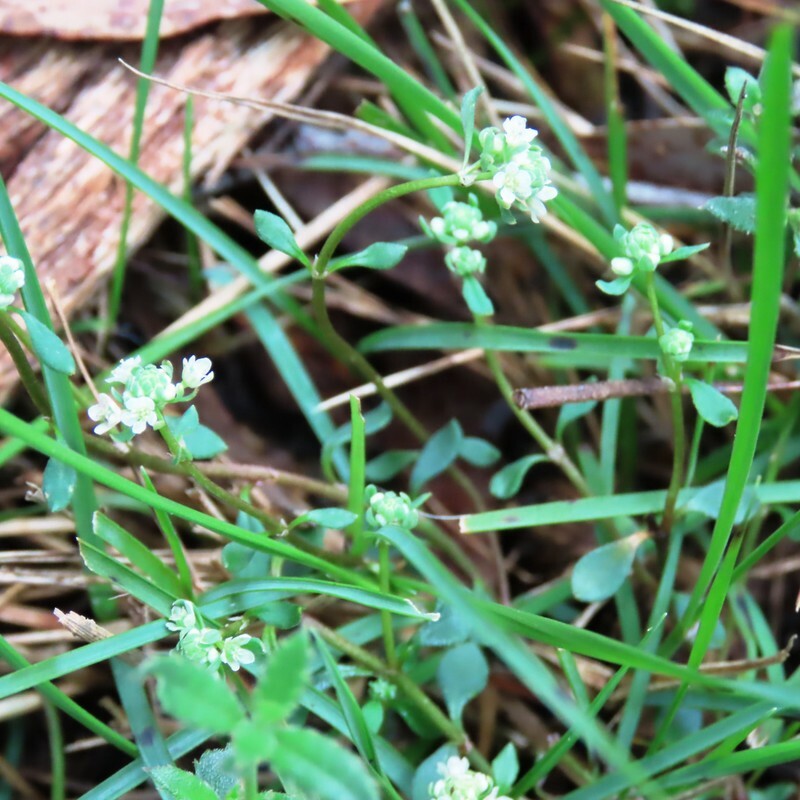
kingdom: Plantae
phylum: Tracheophyta
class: Magnoliopsida
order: Malpighiales
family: Phyllanthaceae
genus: Poranthera
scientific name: Poranthera microphylla
